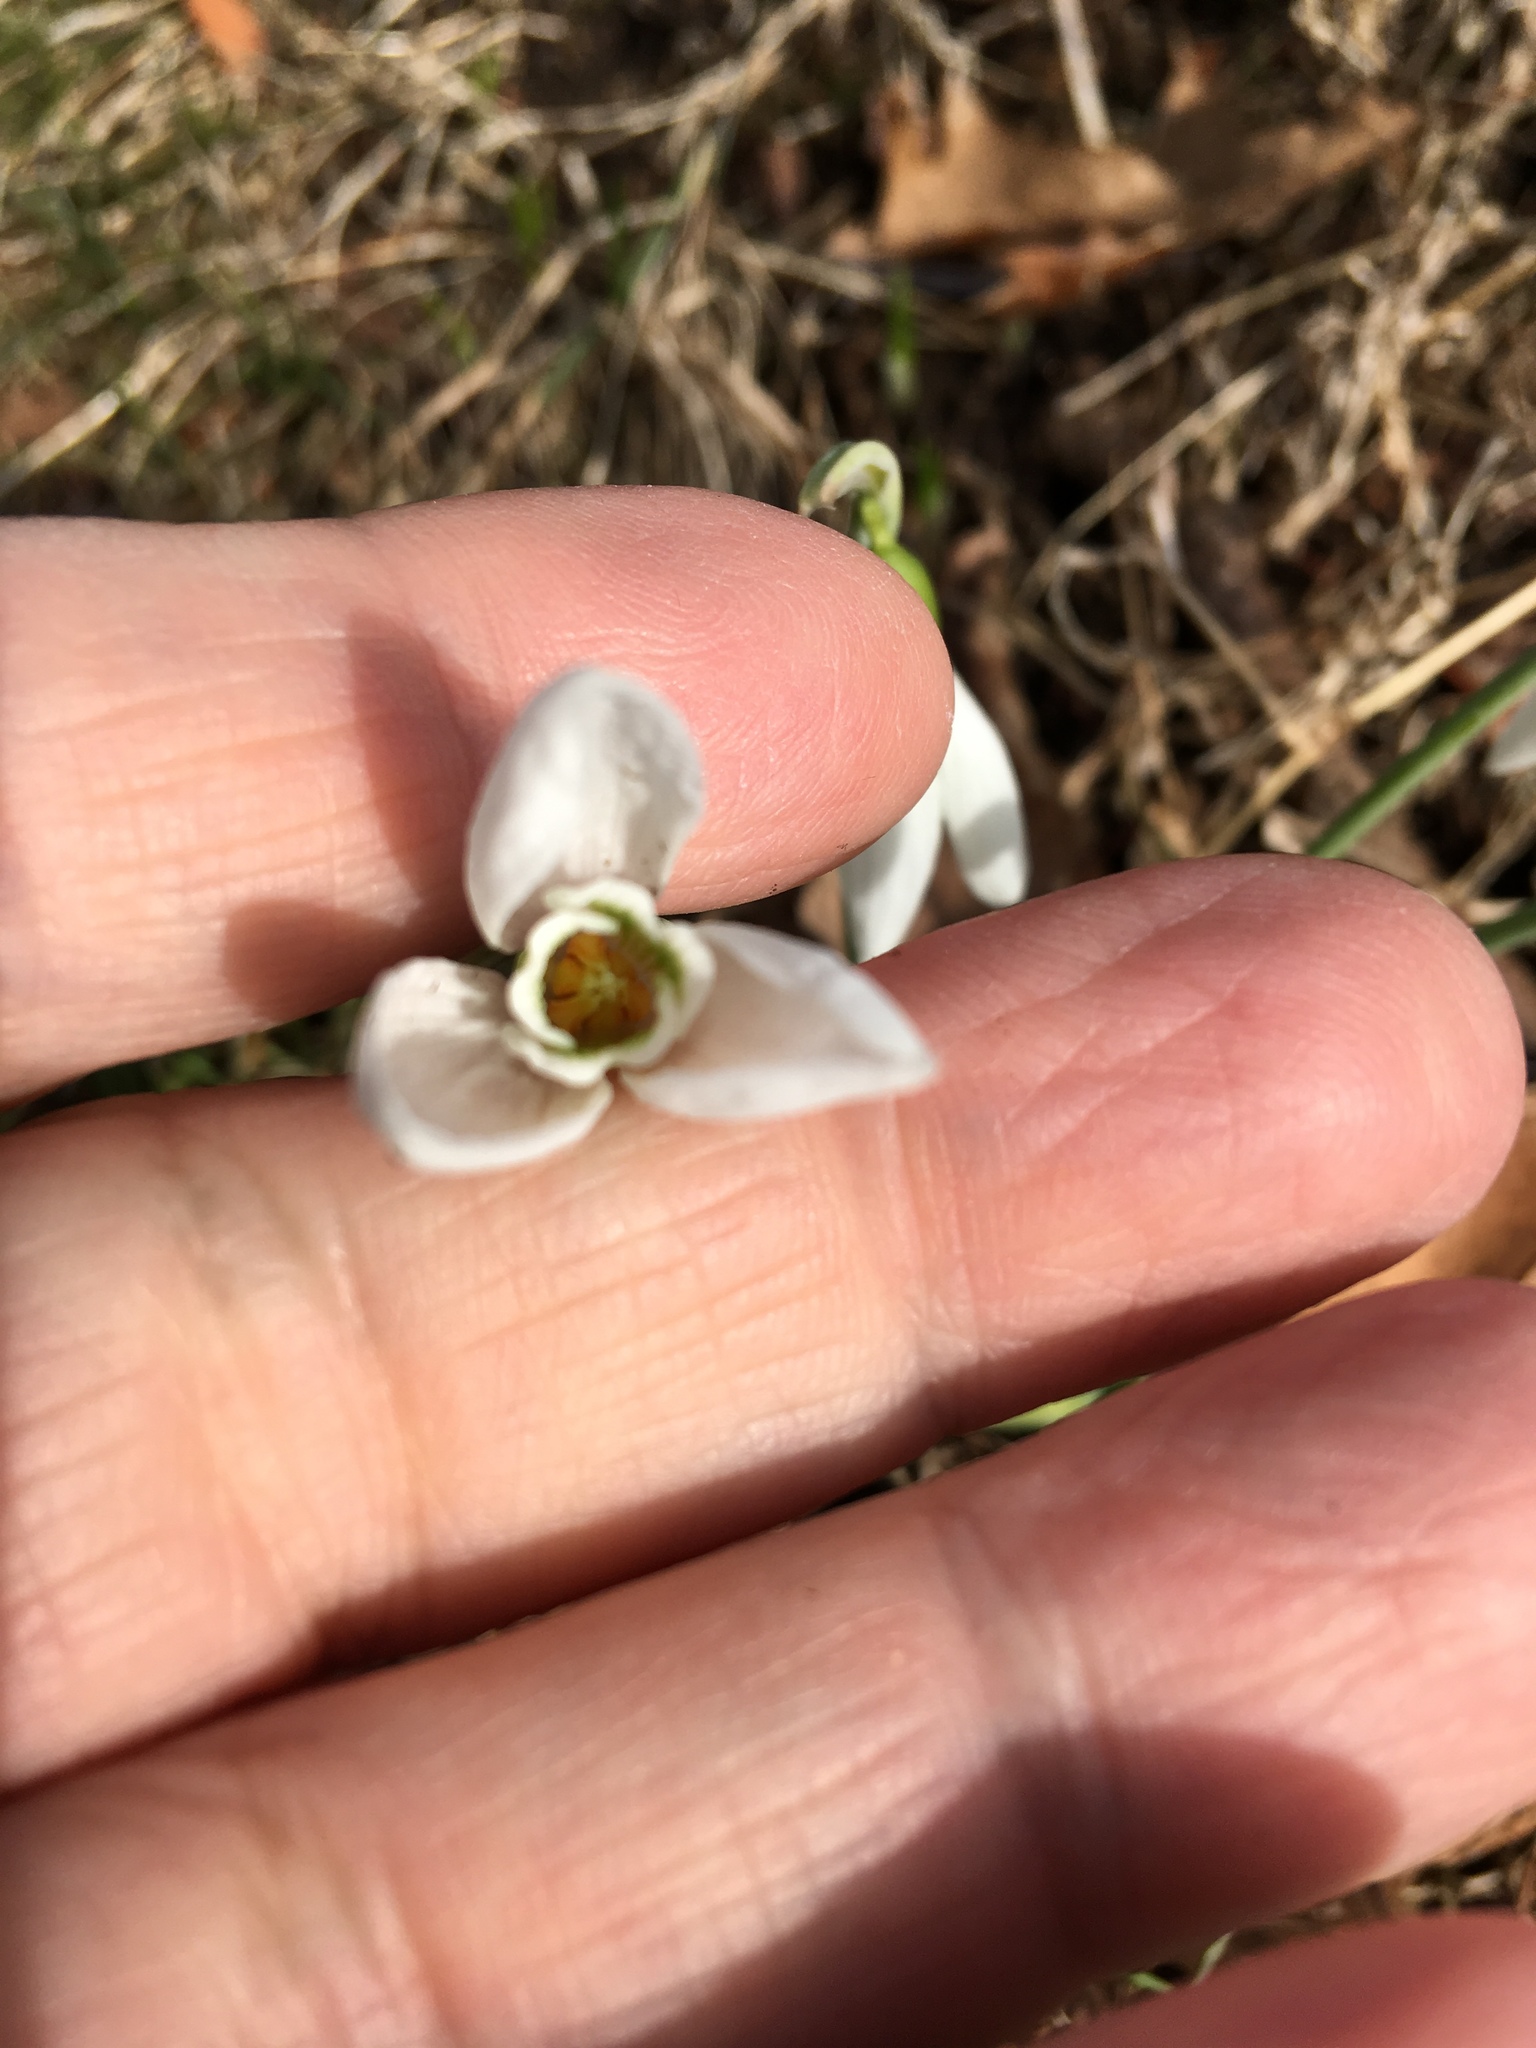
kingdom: Plantae
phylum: Tracheophyta
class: Liliopsida
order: Asparagales
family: Amaryllidaceae
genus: Galanthus
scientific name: Galanthus elwesii
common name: Greater snowdrop
